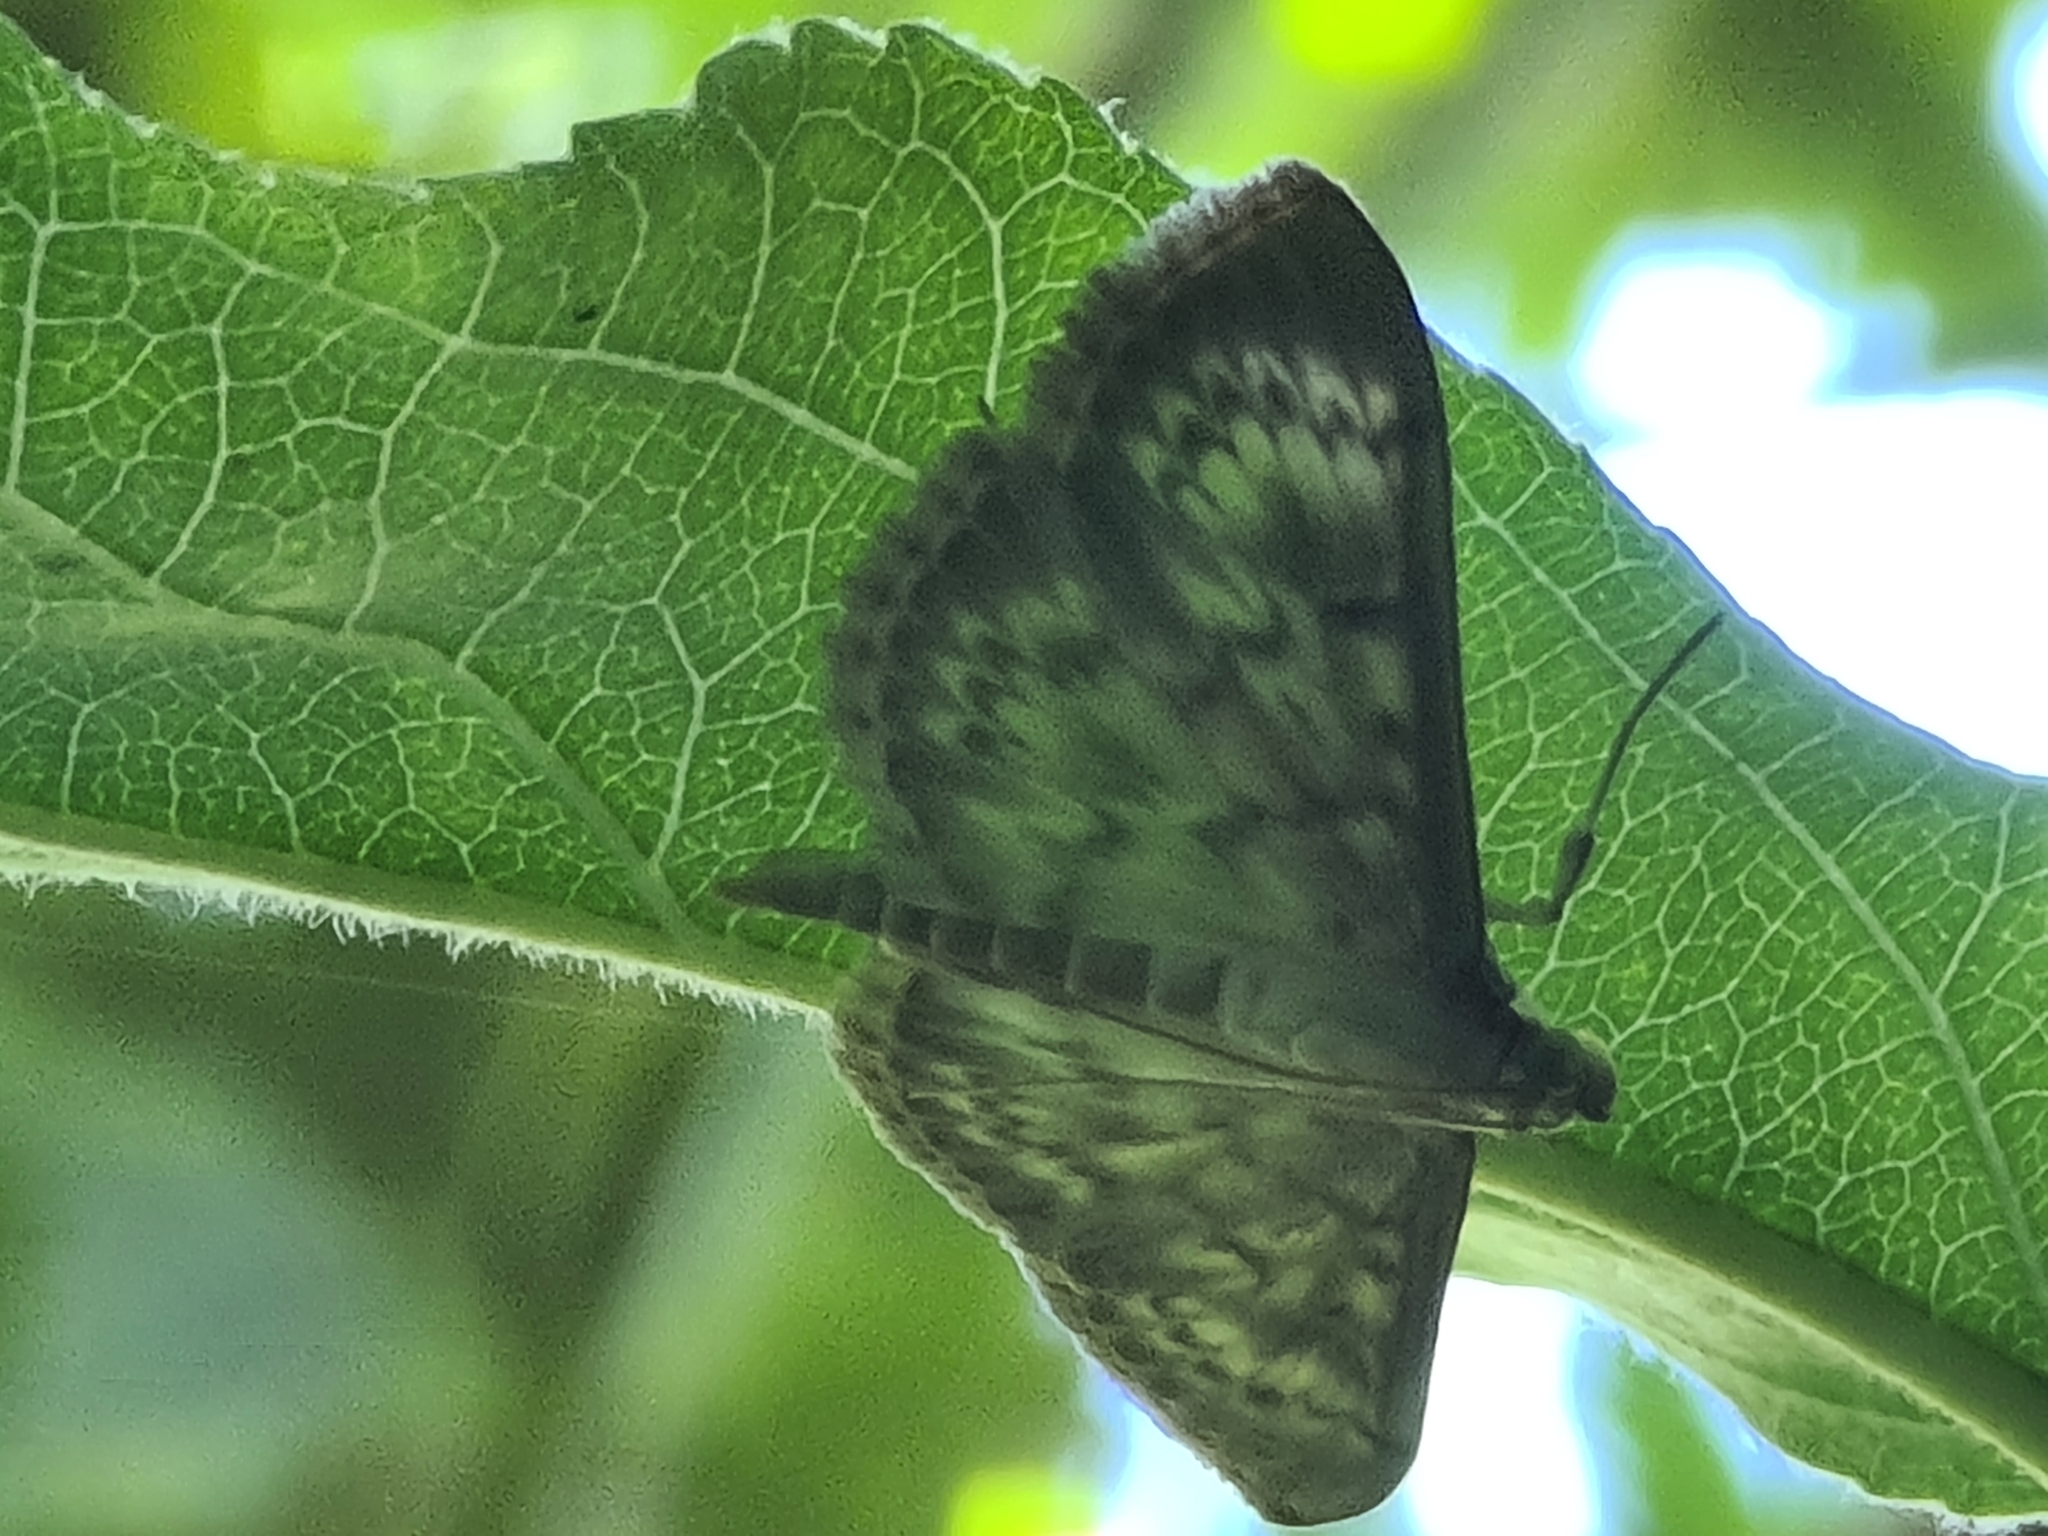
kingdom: Animalia
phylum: Arthropoda
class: Insecta
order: Lepidoptera
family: Crambidae
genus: Patania
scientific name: Patania ruralis
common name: Mother of pearl
